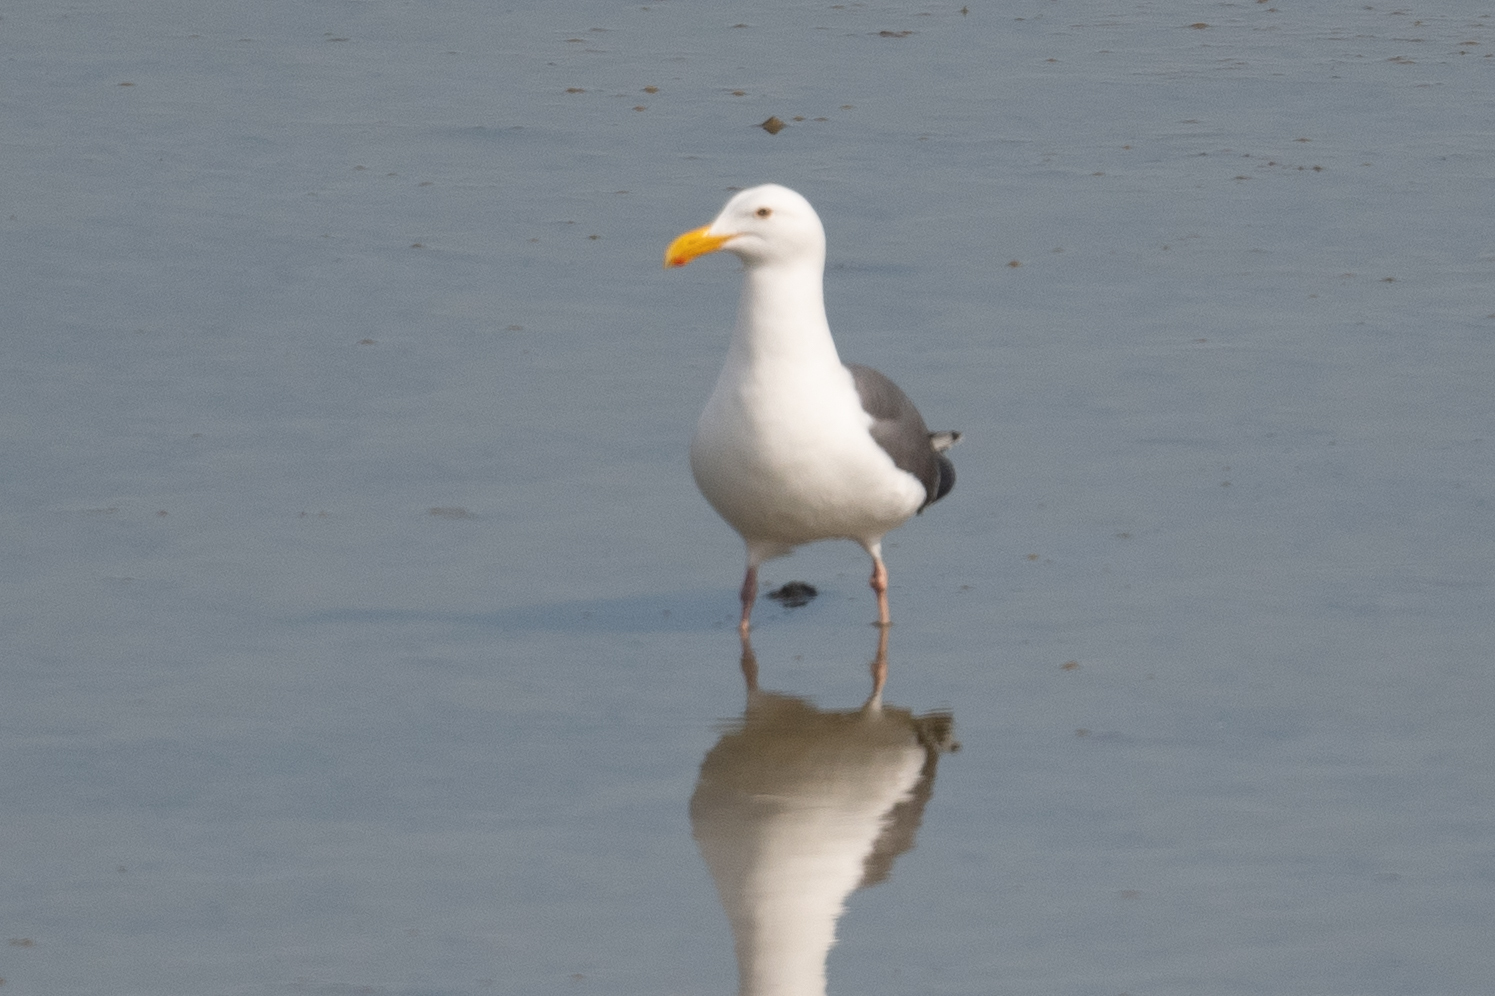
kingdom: Animalia
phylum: Chordata
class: Aves
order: Charadriiformes
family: Laridae
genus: Larus
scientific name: Larus occidentalis
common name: Western gull
